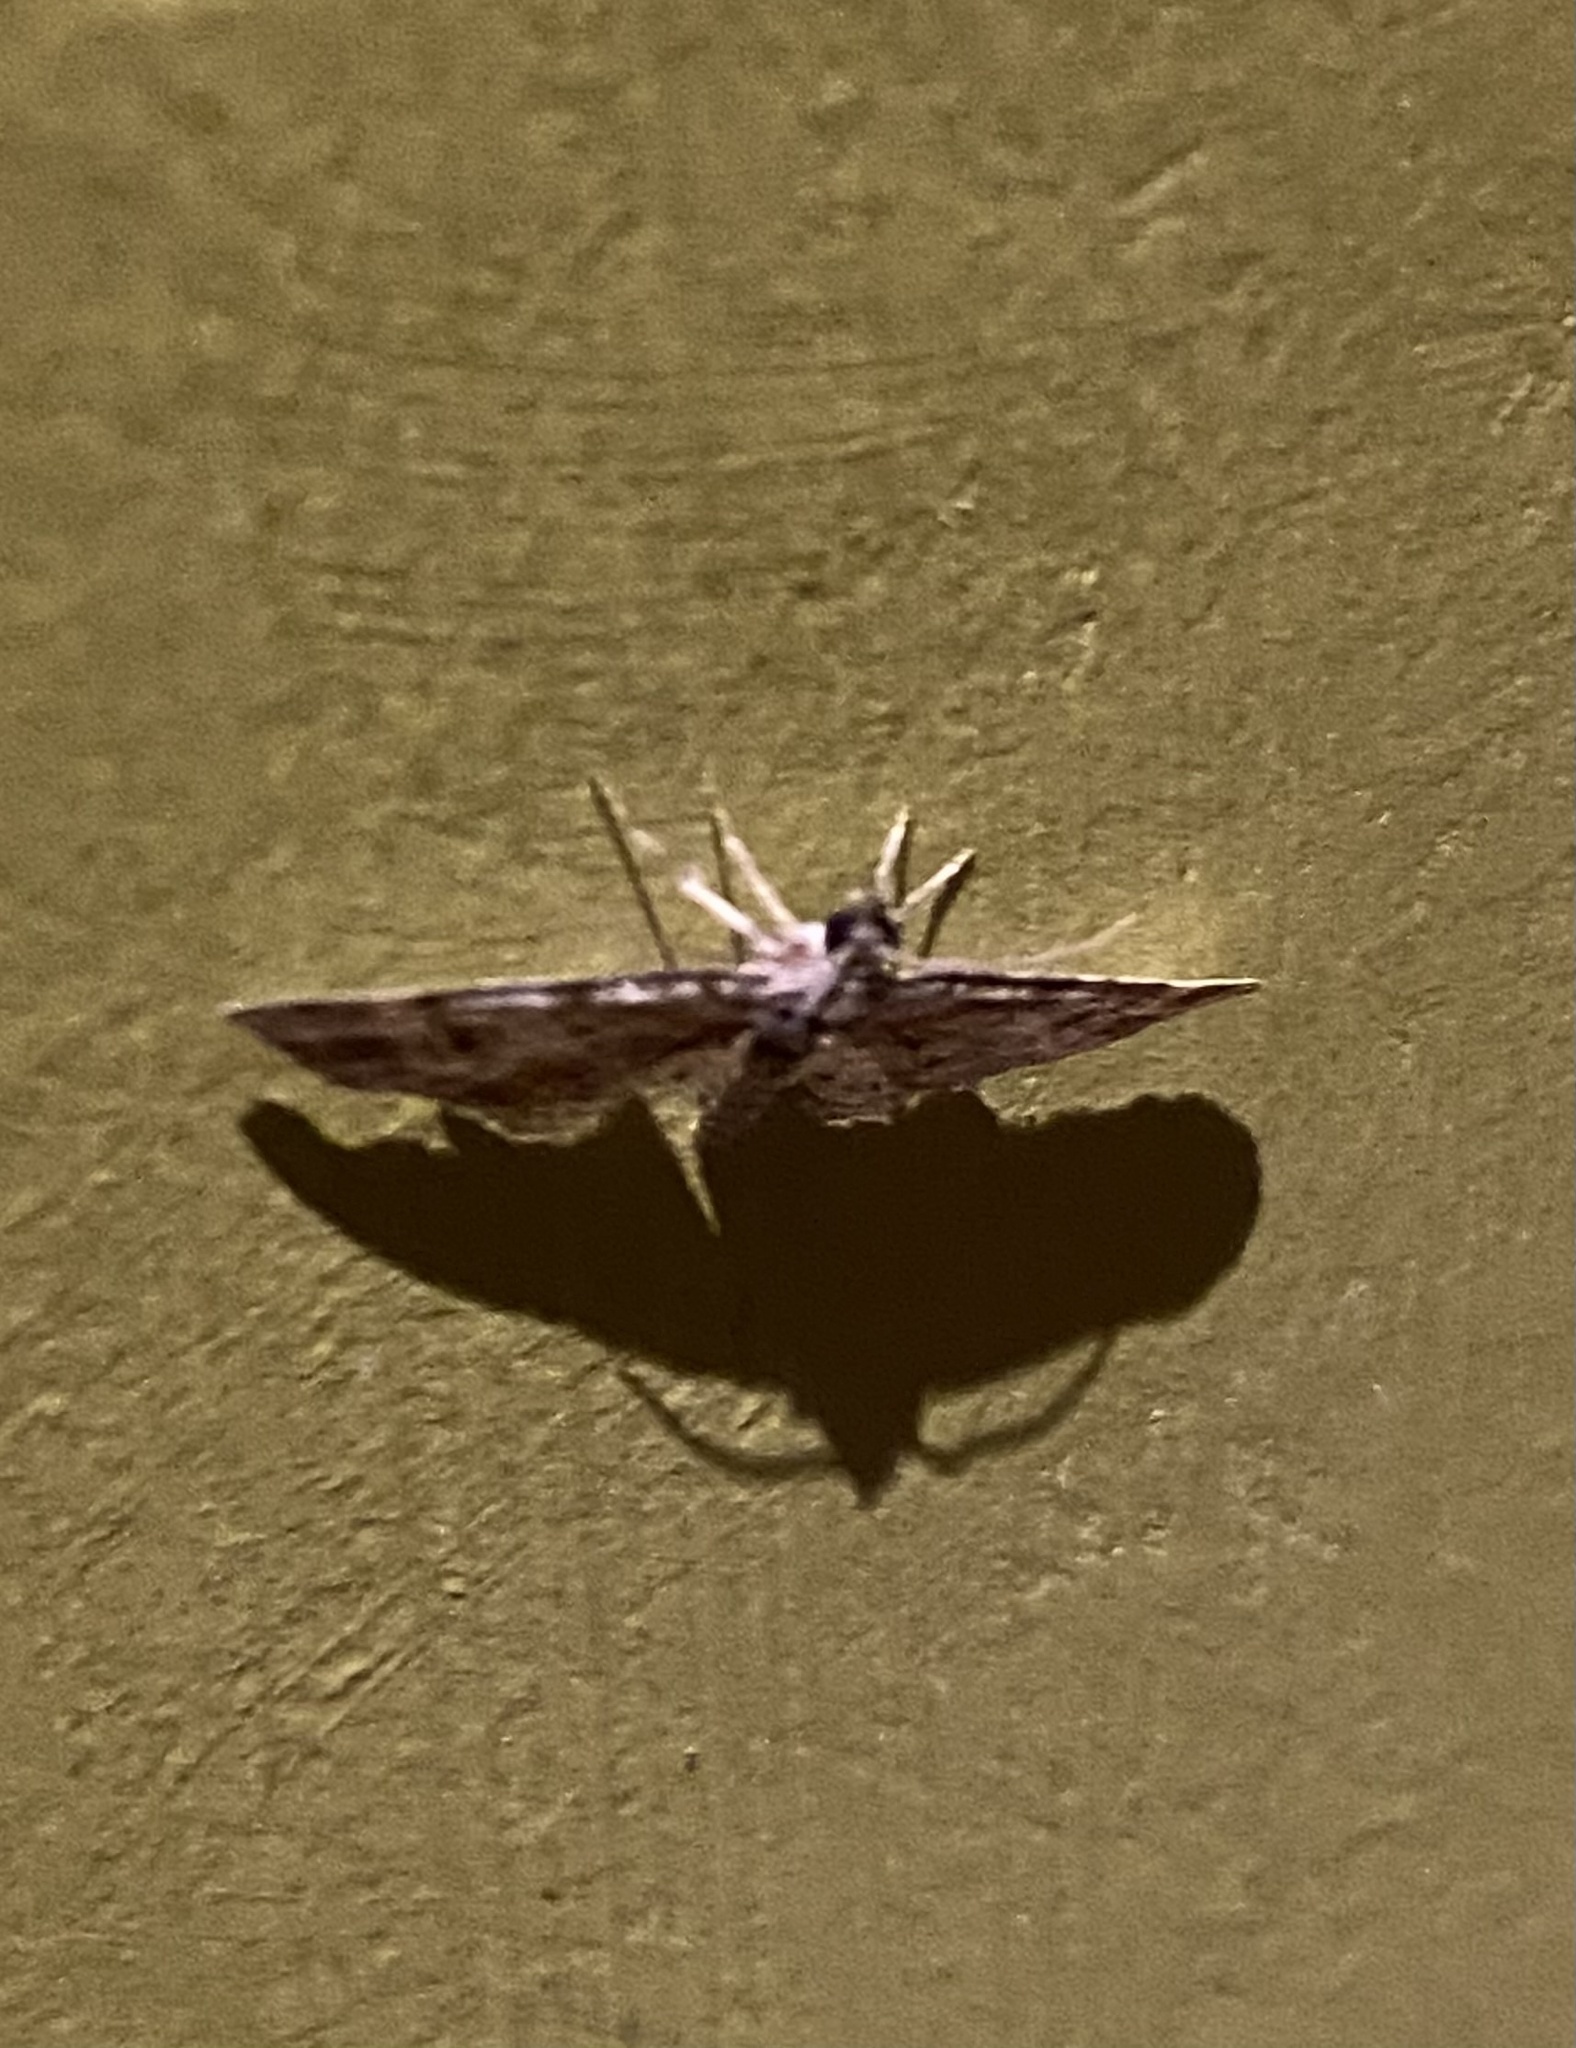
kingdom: Animalia
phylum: Arthropoda
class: Insecta
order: Lepidoptera
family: Geometridae
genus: Gymnoscelis
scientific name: Gymnoscelis rufifasciata
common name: Double-striped pug
